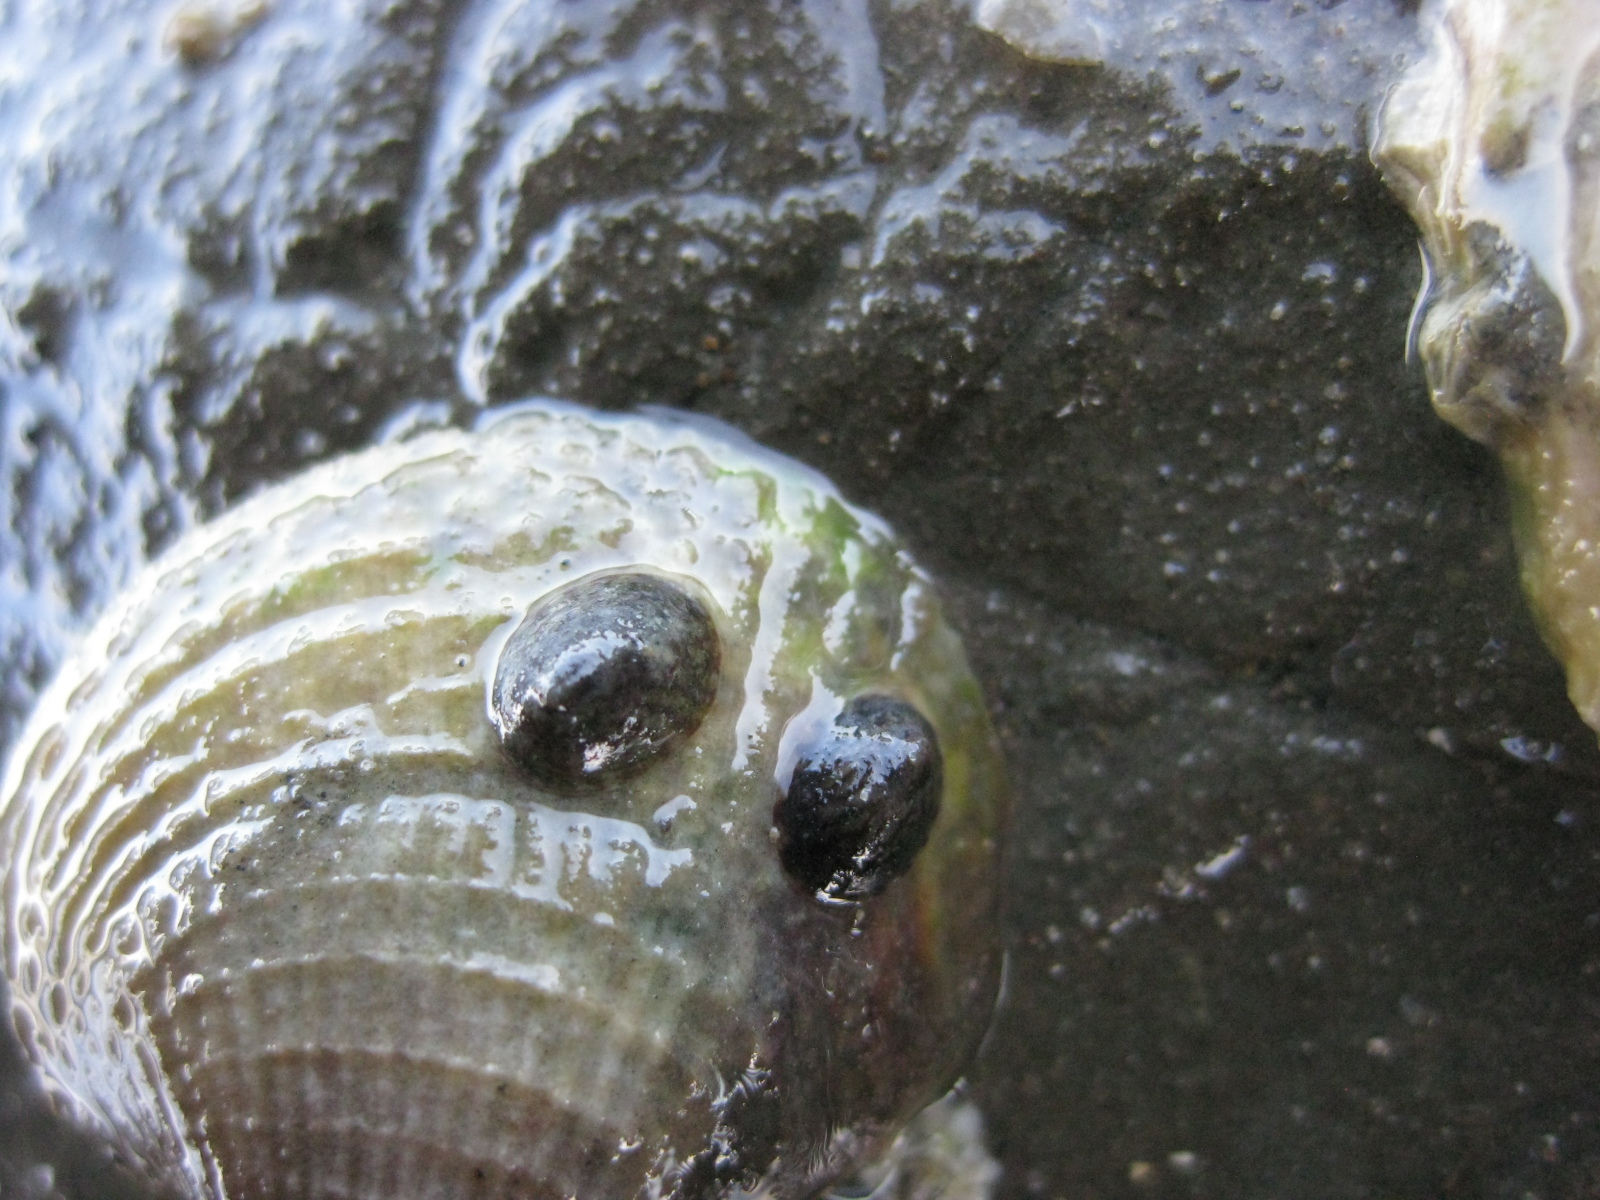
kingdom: Animalia
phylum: Mollusca
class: Gastropoda
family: Lottiidae
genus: Notoacmea
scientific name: Notoacmea elongata
